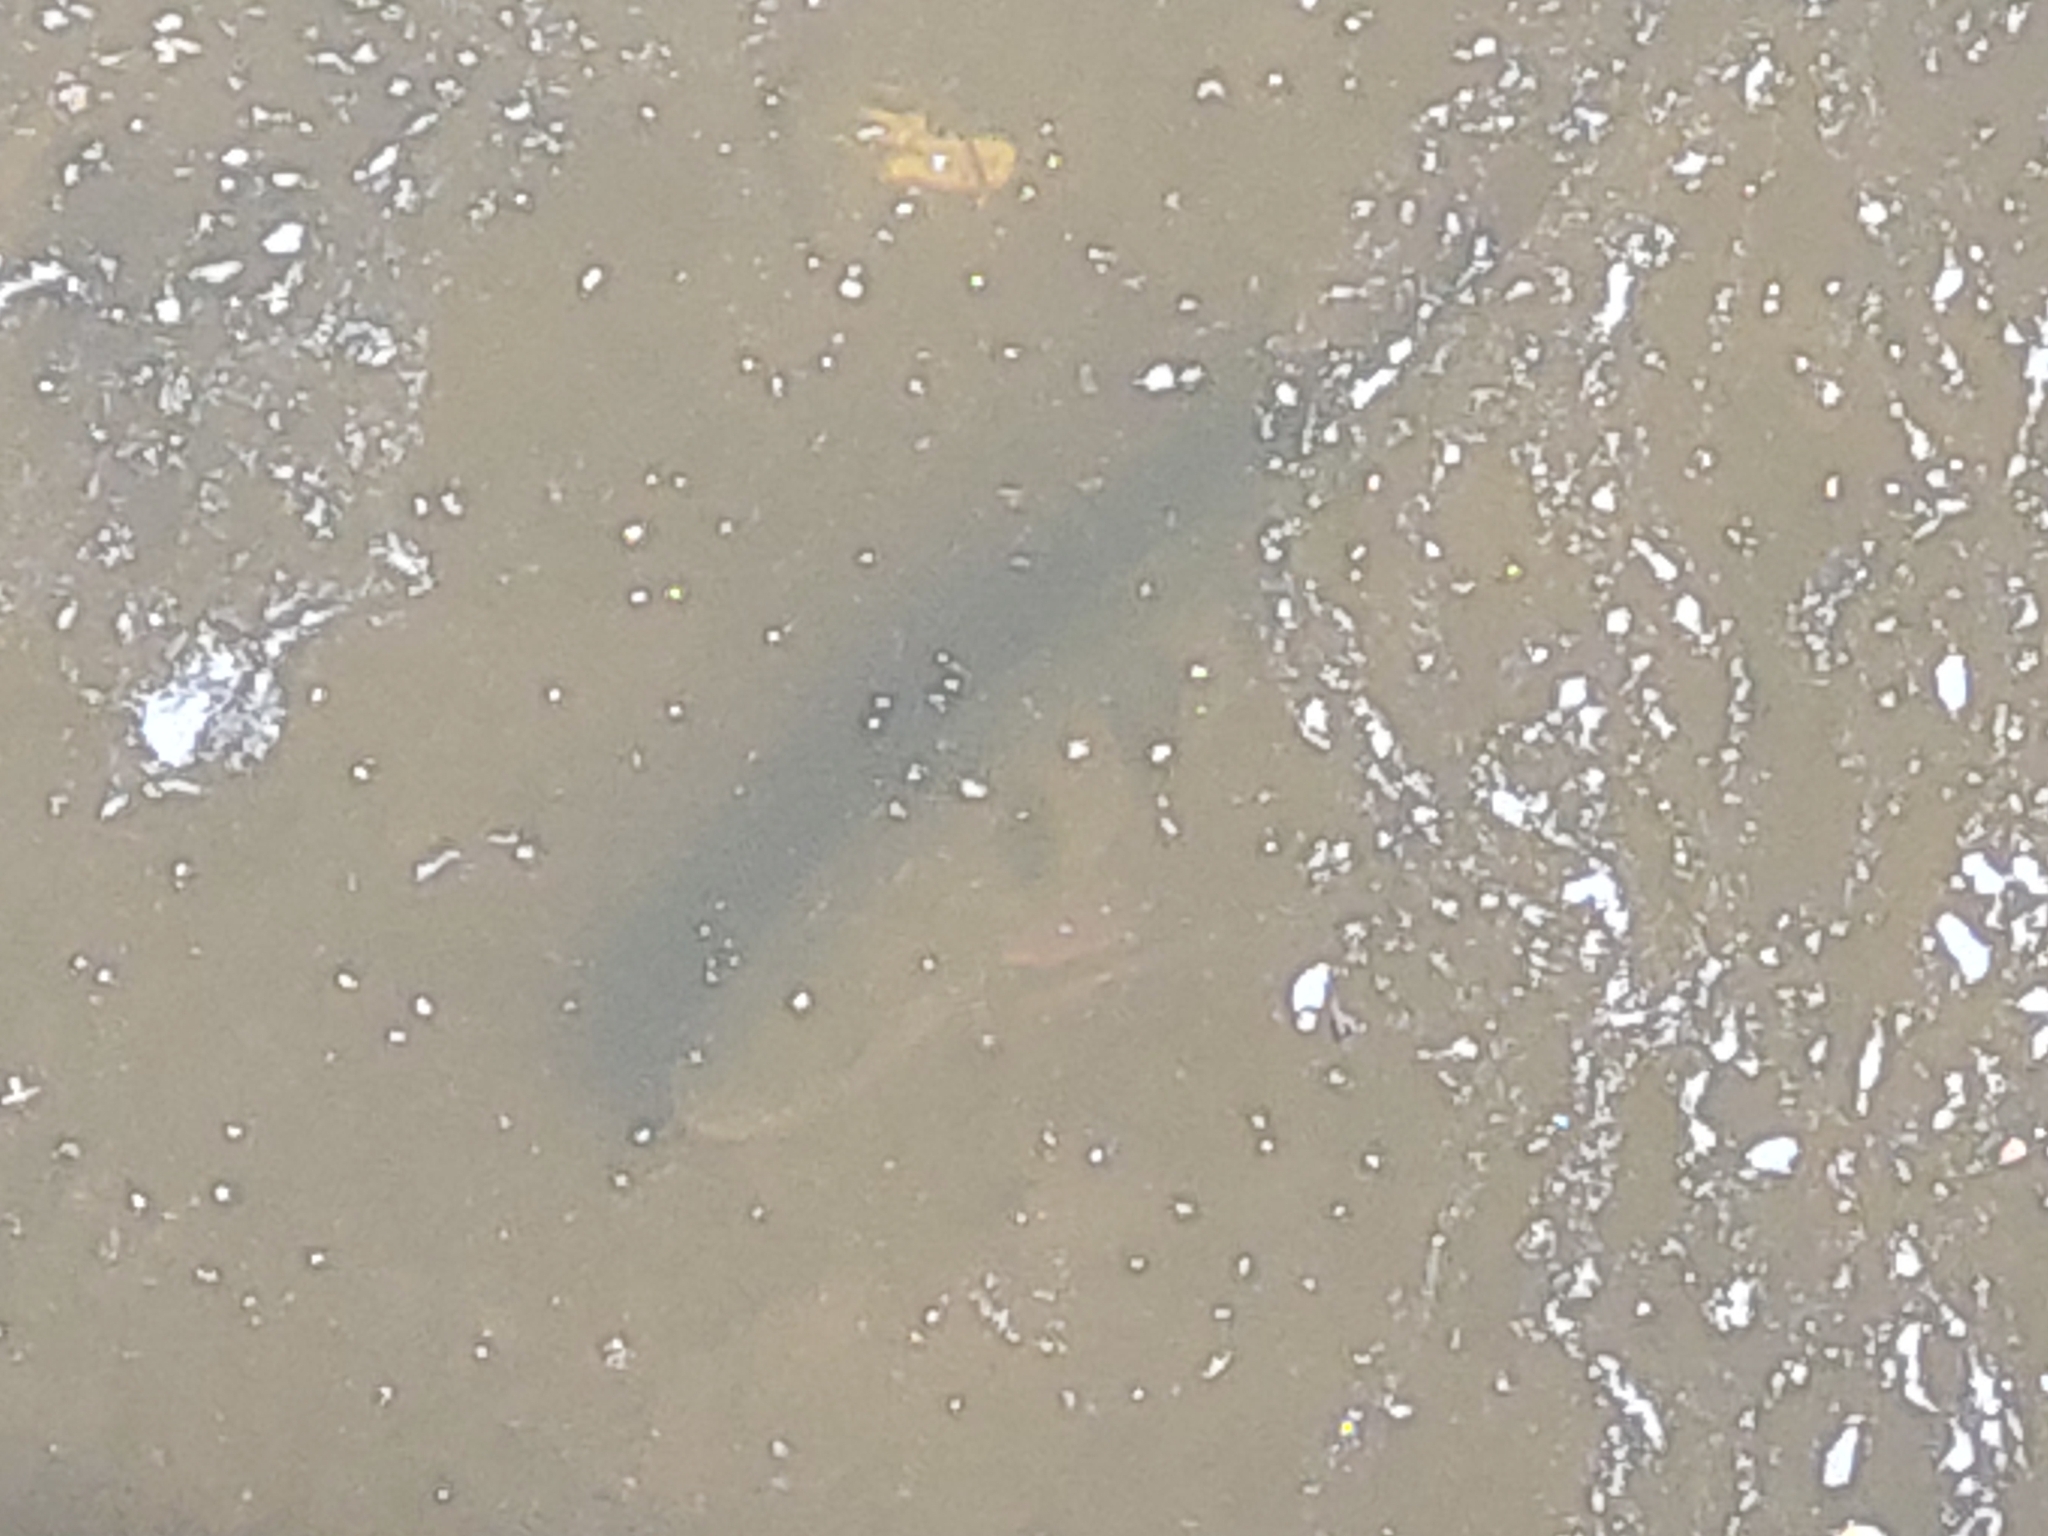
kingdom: Animalia
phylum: Chordata
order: Perciformes
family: Percidae
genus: Perca
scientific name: Perca fluviatilis
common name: Perch
